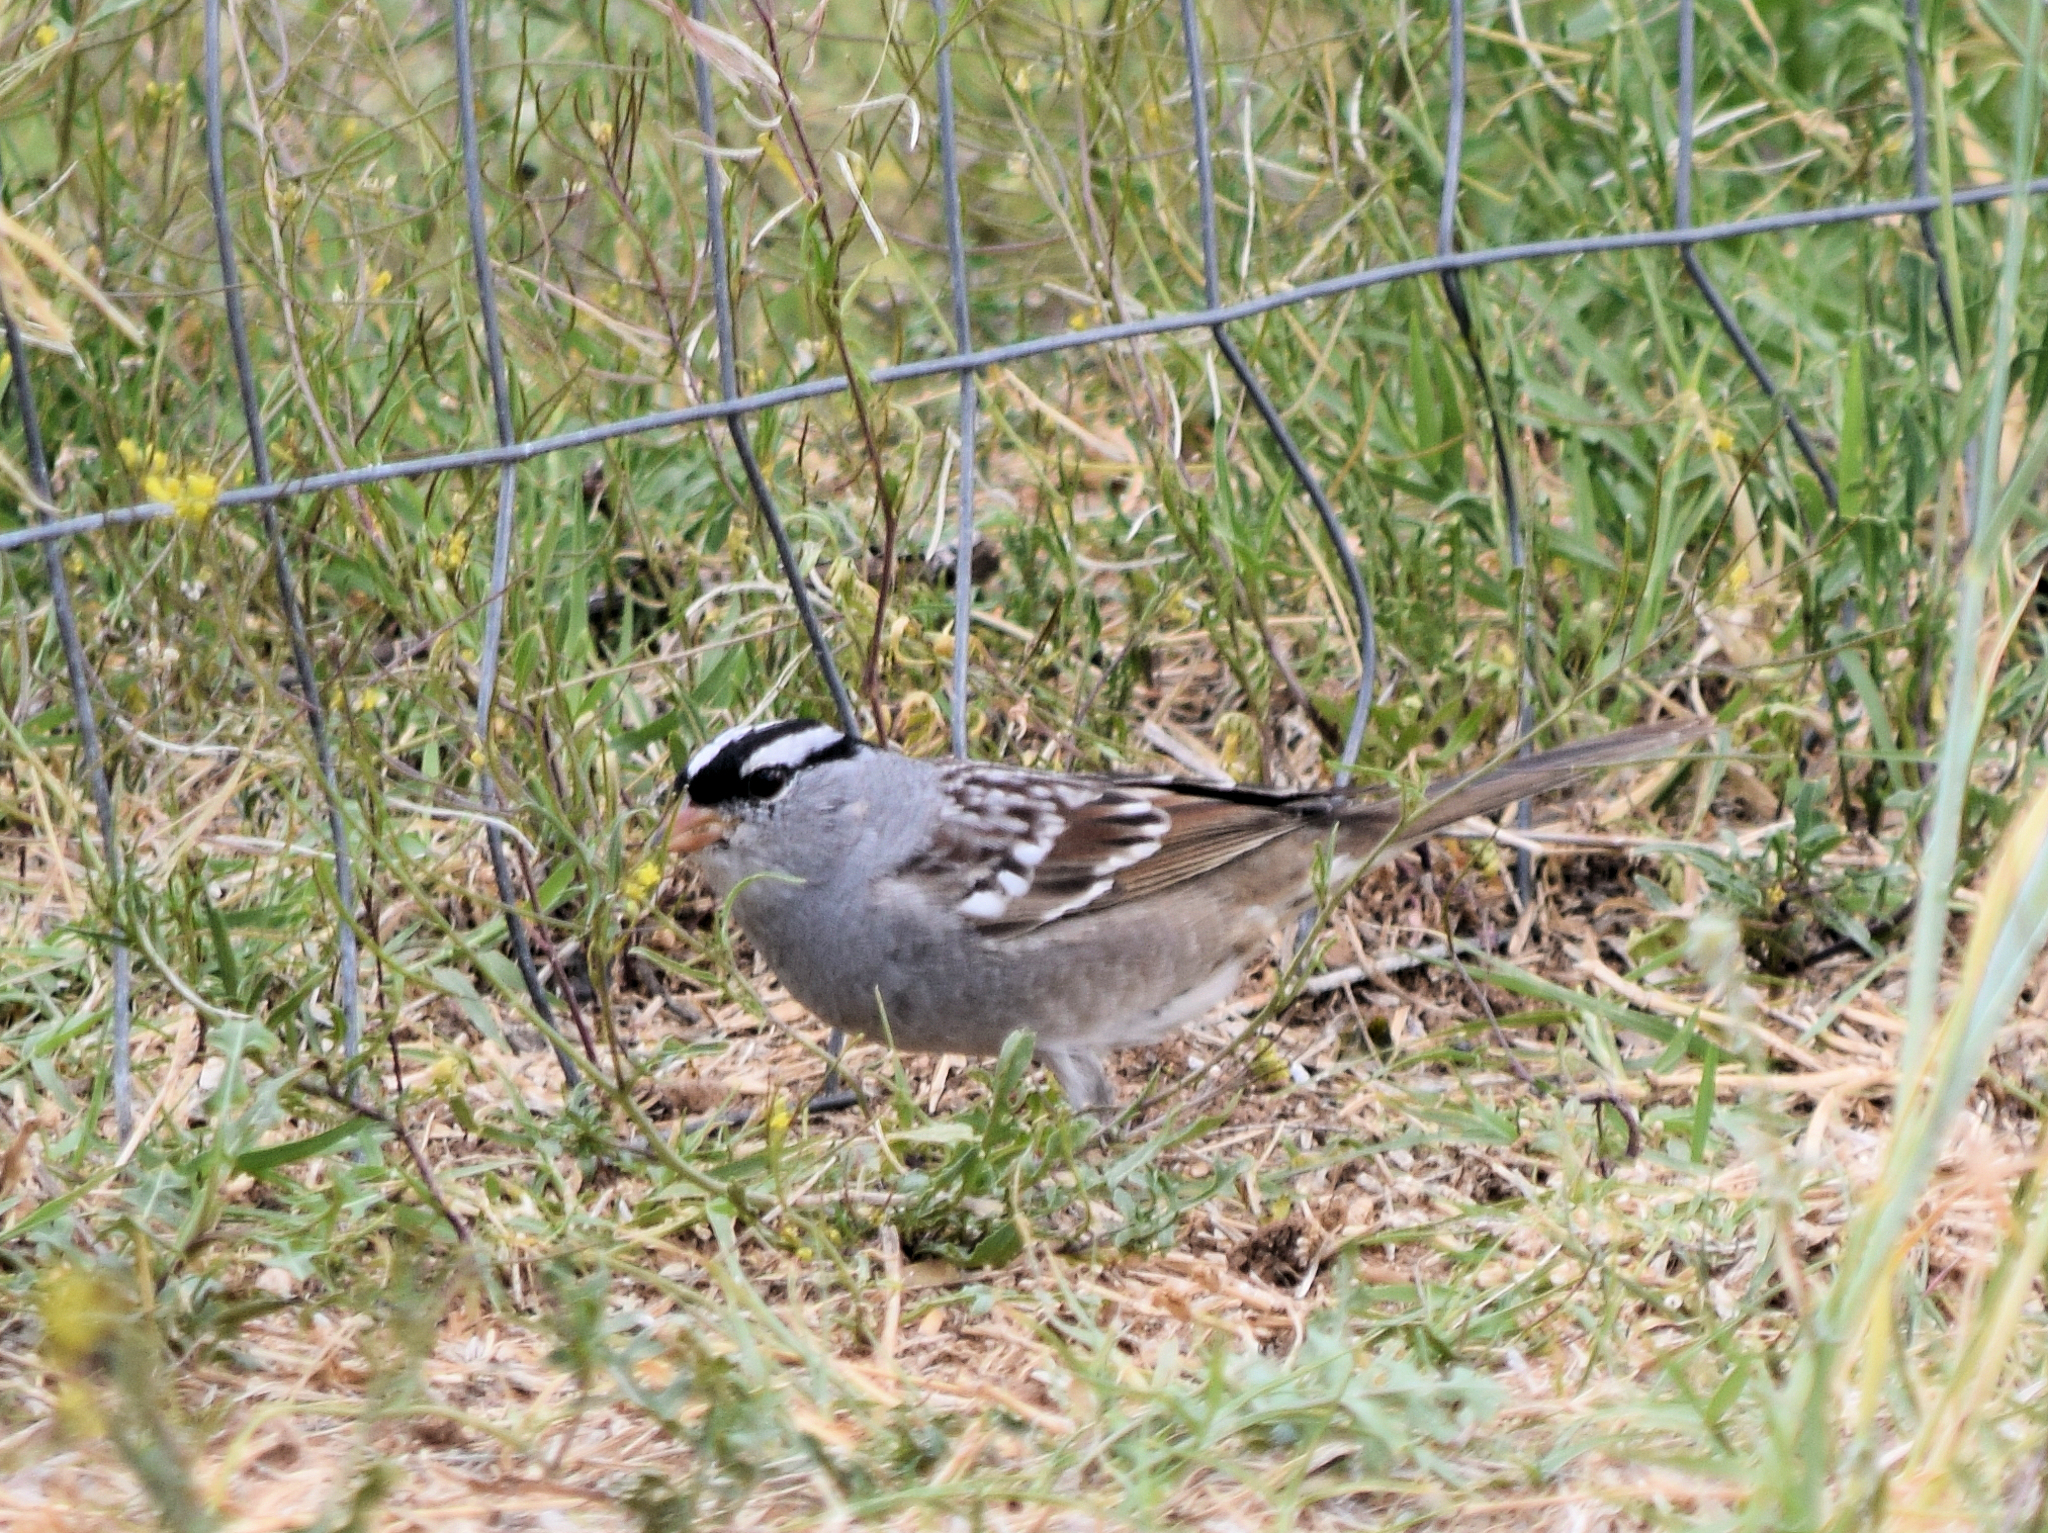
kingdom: Animalia
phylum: Chordata
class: Aves
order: Passeriformes
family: Passerellidae
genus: Zonotrichia
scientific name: Zonotrichia leucophrys
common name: White-crowned sparrow
